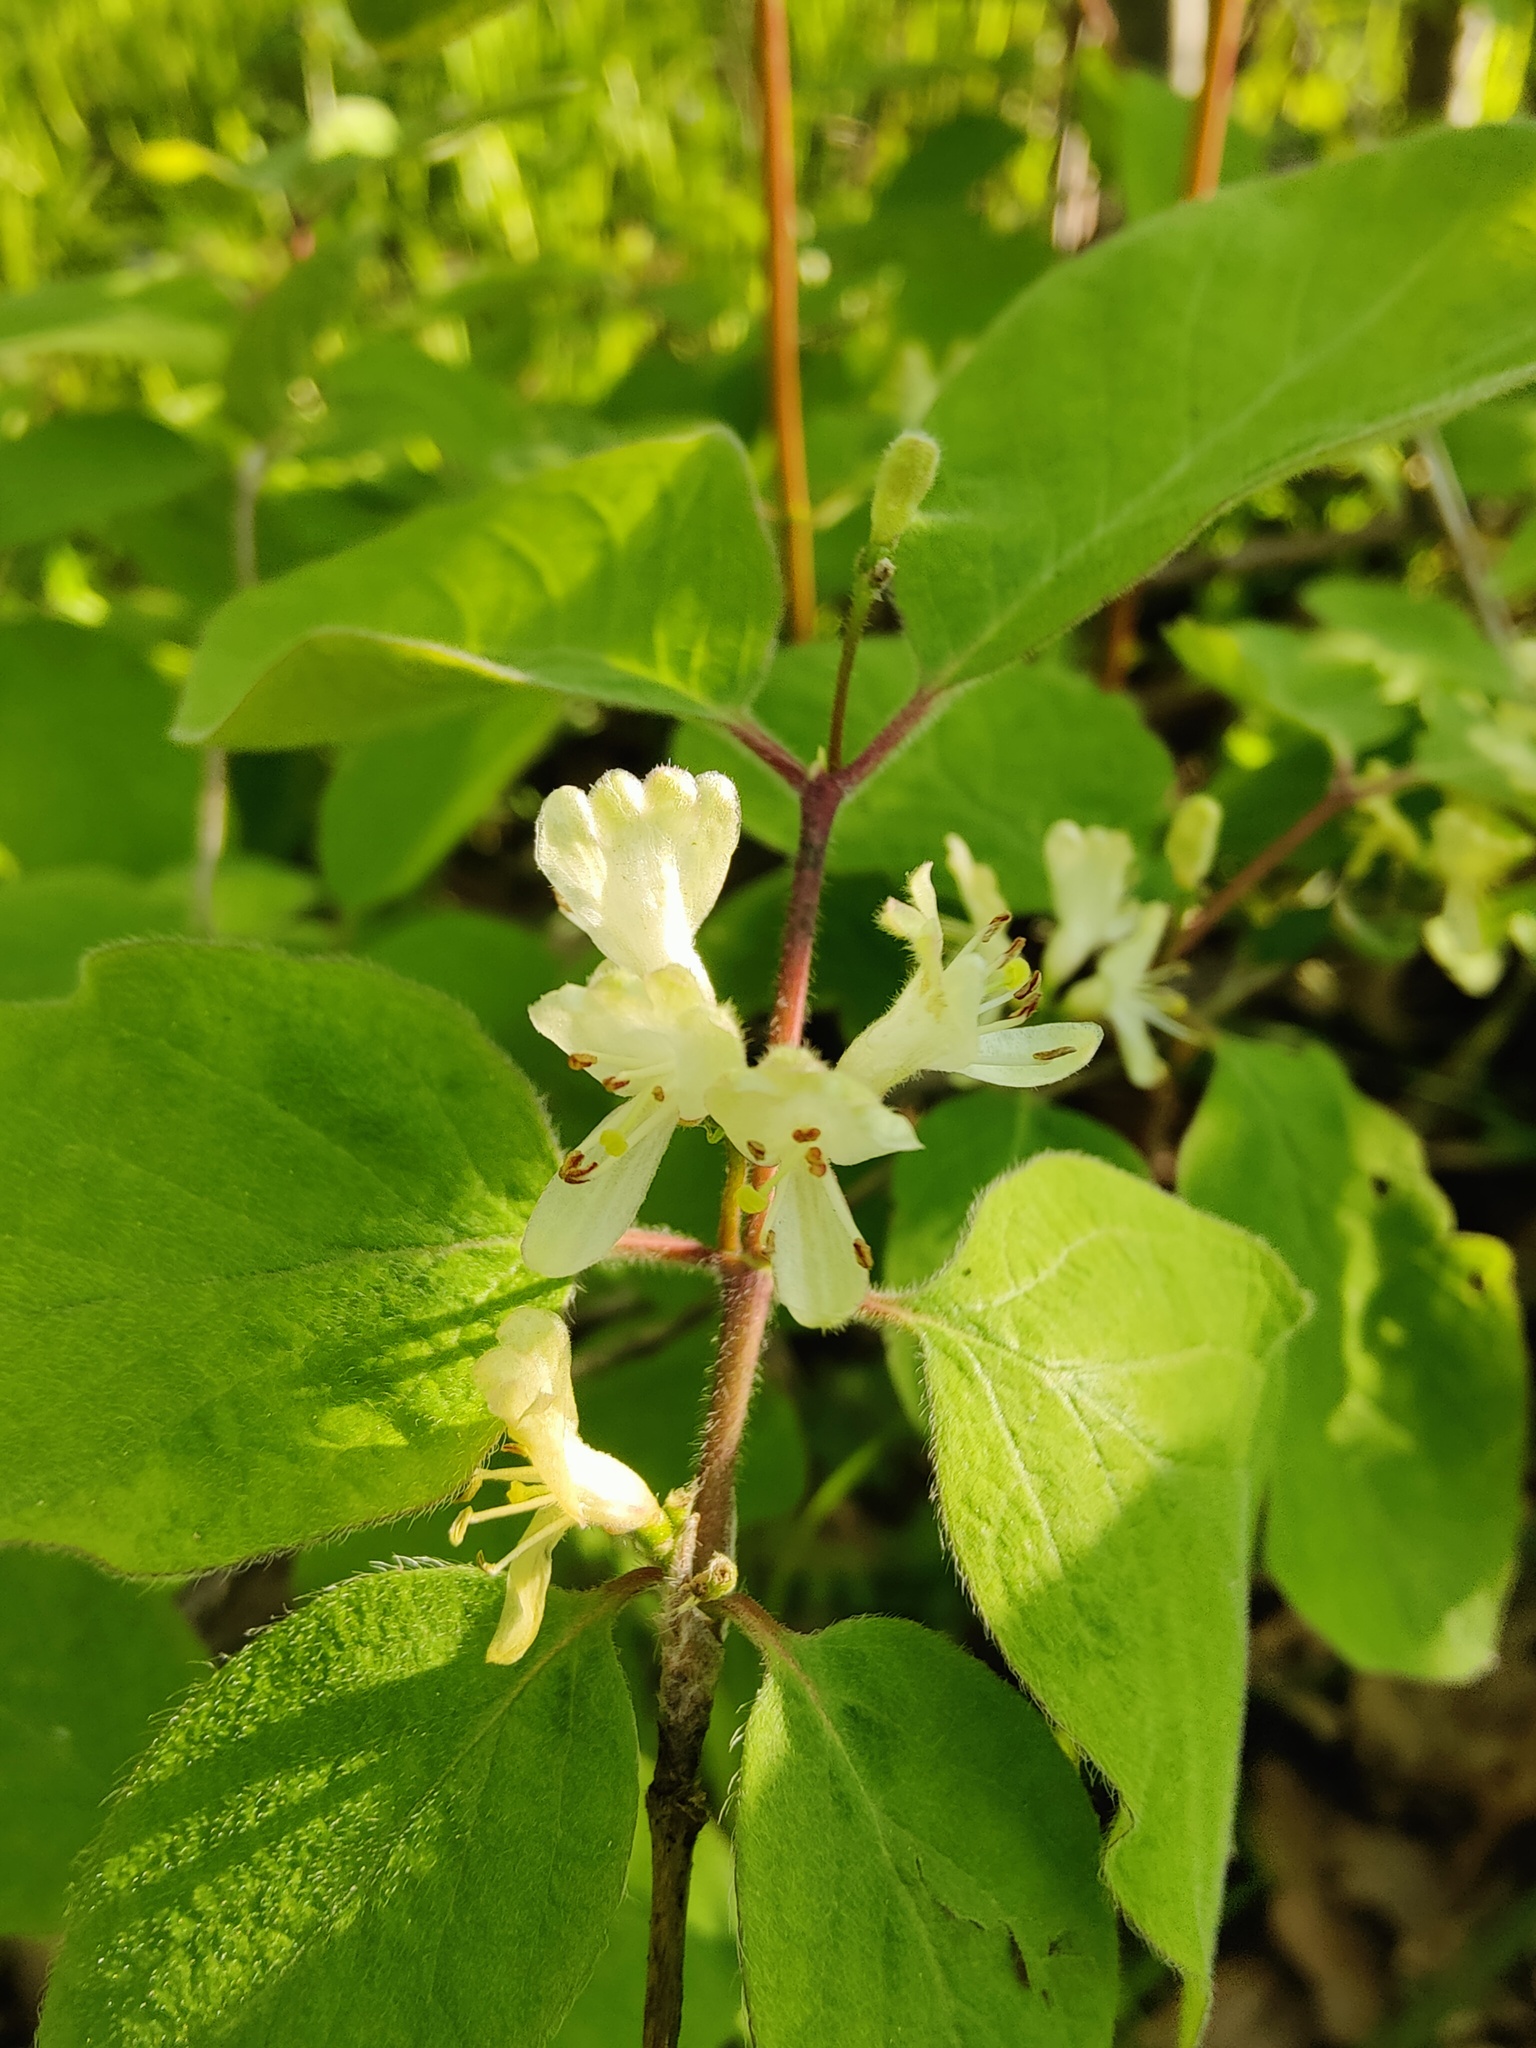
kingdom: Plantae
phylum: Tracheophyta
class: Magnoliopsida
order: Dipsacales
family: Caprifoliaceae
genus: Lonicera
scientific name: Lonicera xylosteum
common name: Fly honeysuckle
